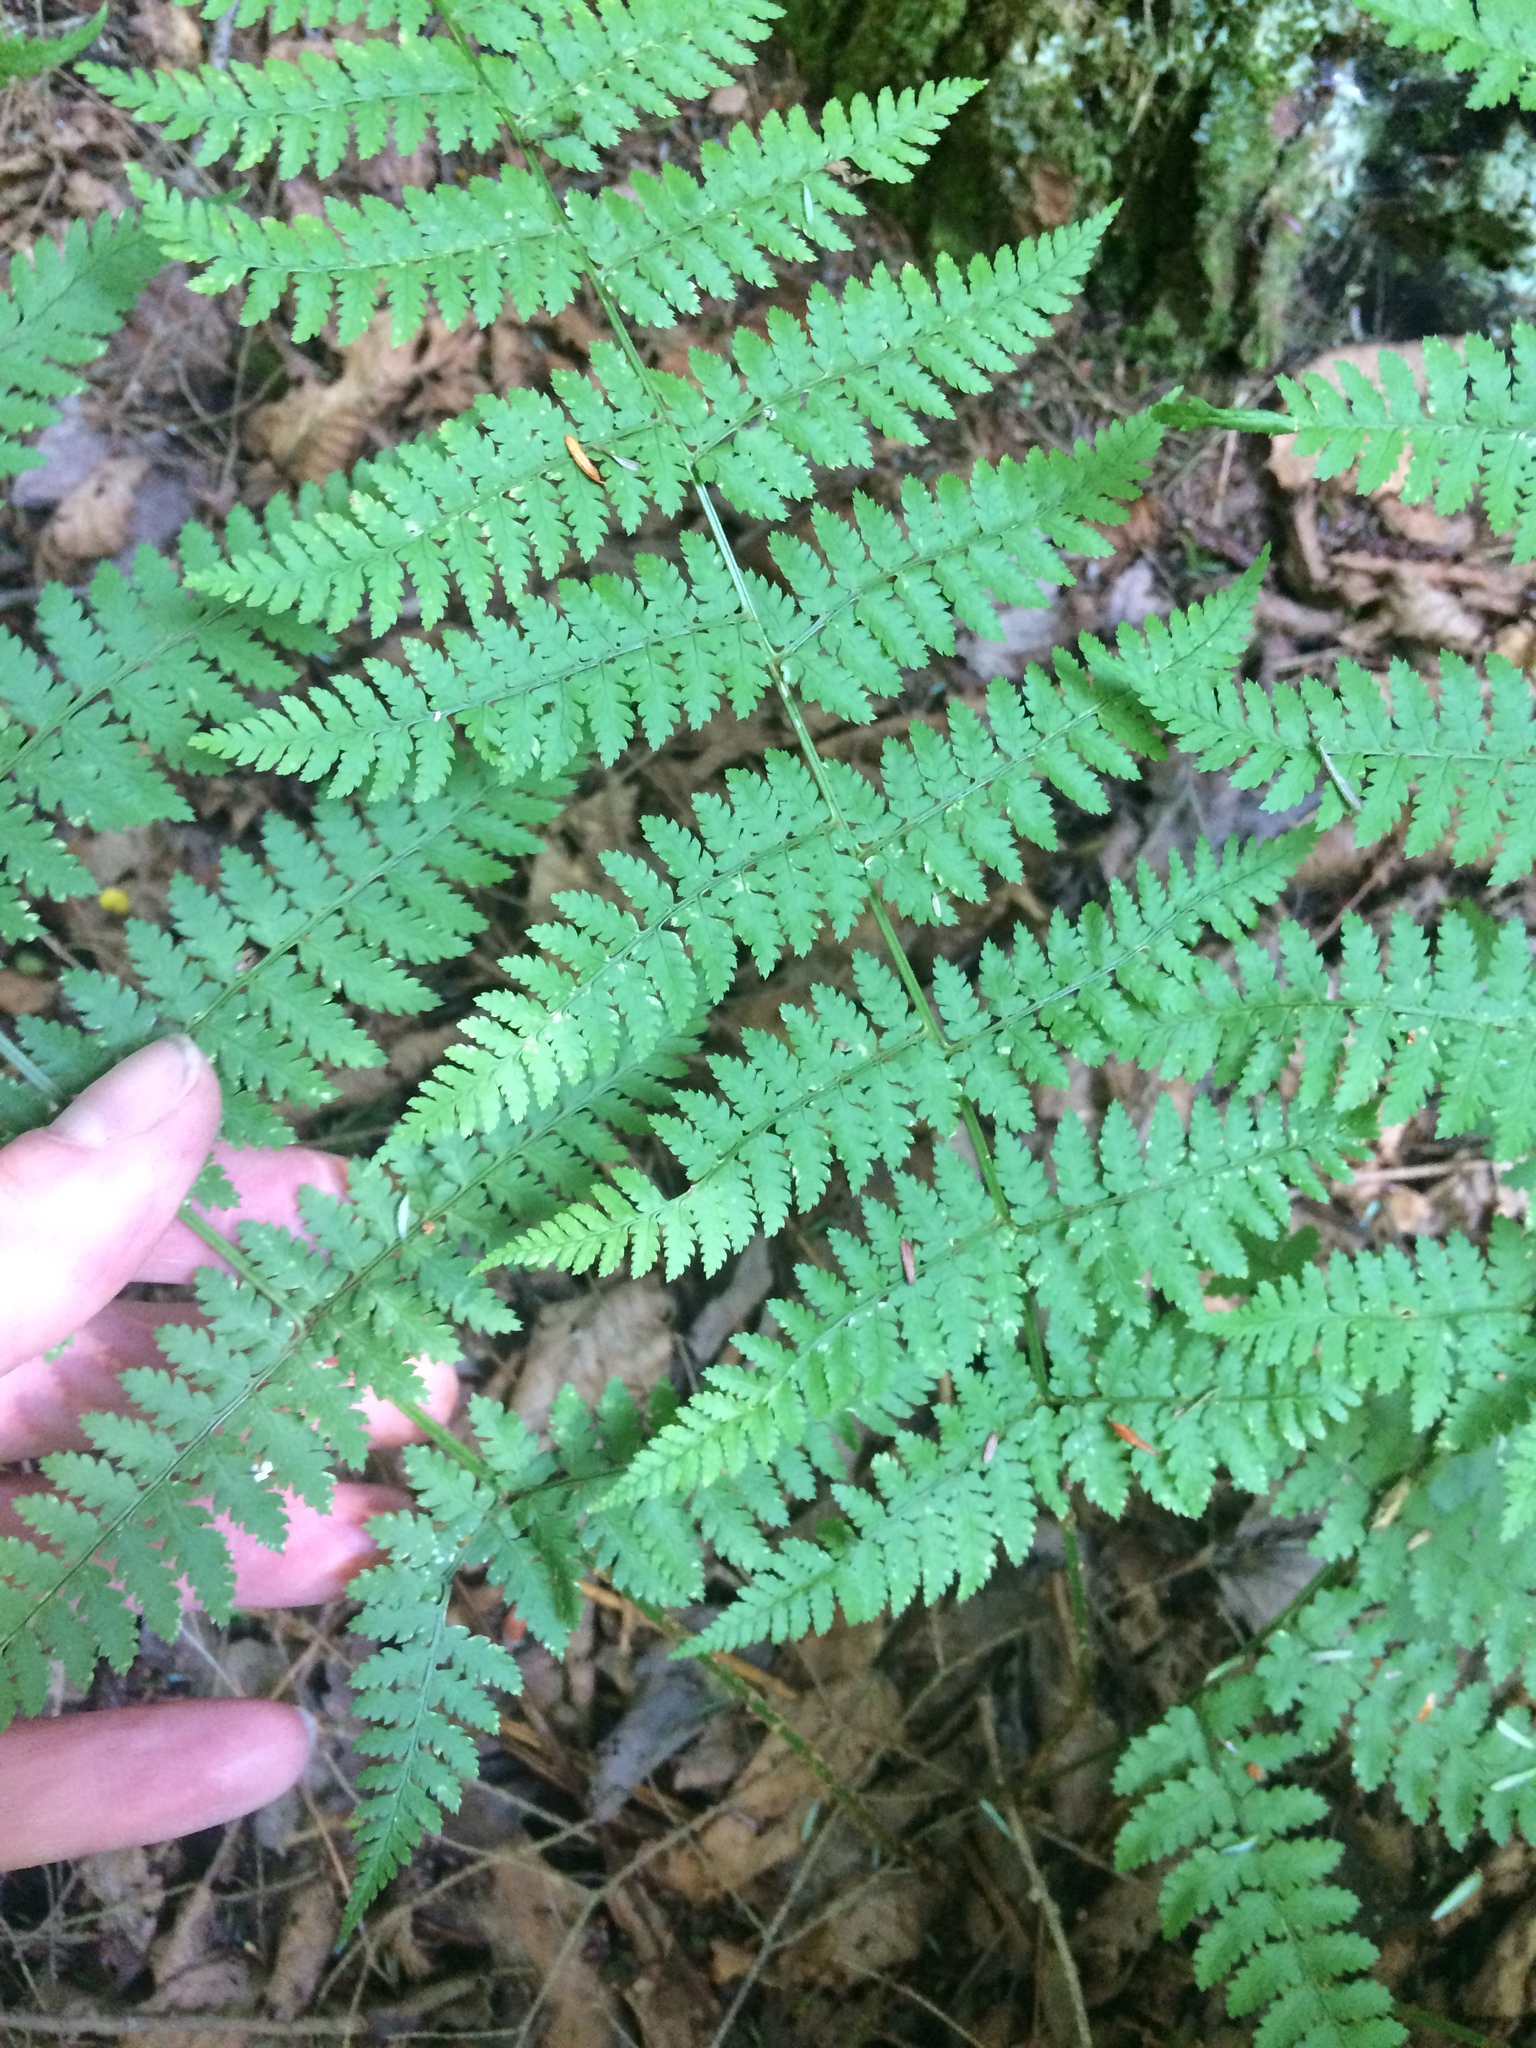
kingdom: Plantae
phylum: Tracheophyta
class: Polypodiopsida
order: Polypodiales
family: Dryopteridaceae
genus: Dryopteris
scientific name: Dryopteris intermedia
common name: Evergreen wood fern
